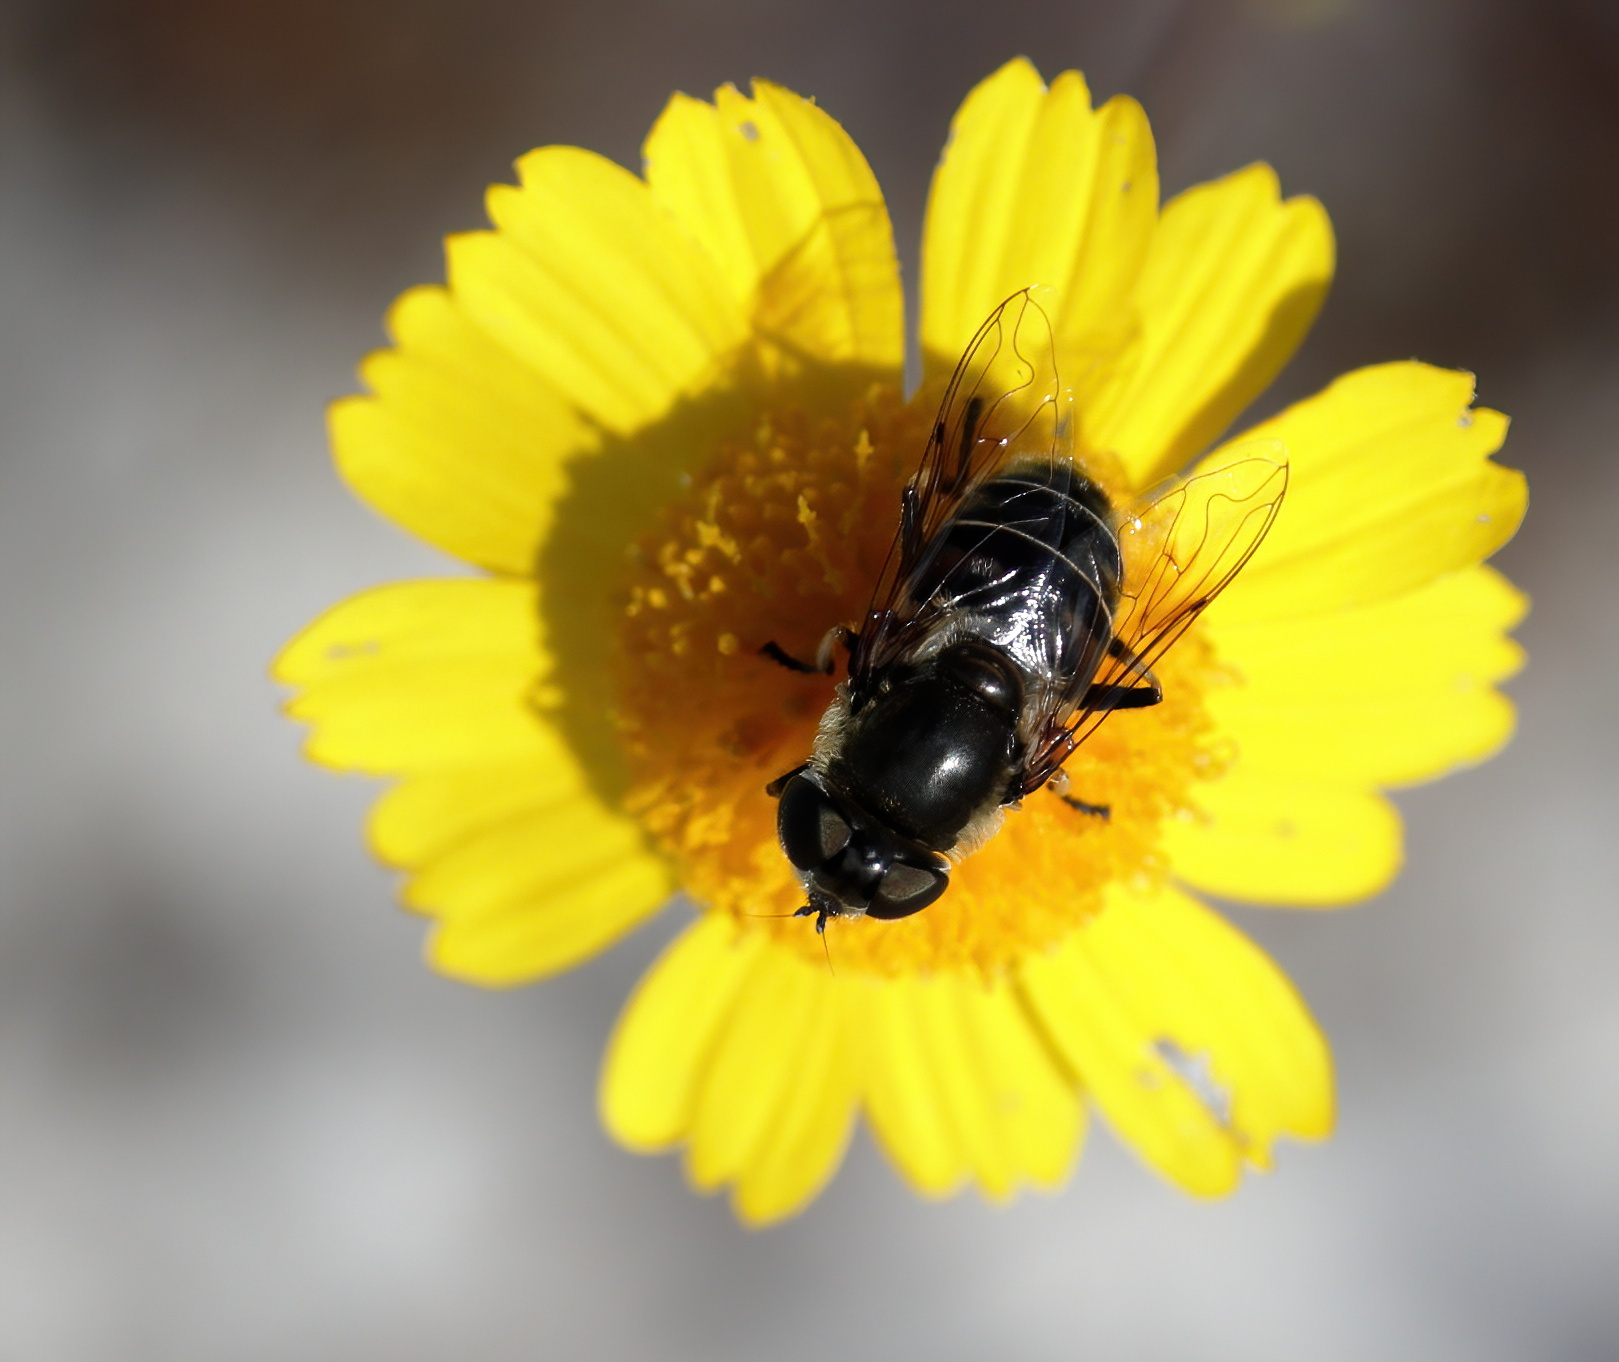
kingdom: Animalia
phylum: Arthropoda
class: Insecta
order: Diptera
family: Syrphidae
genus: Eristalis
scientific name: Eristalis dimidiata
